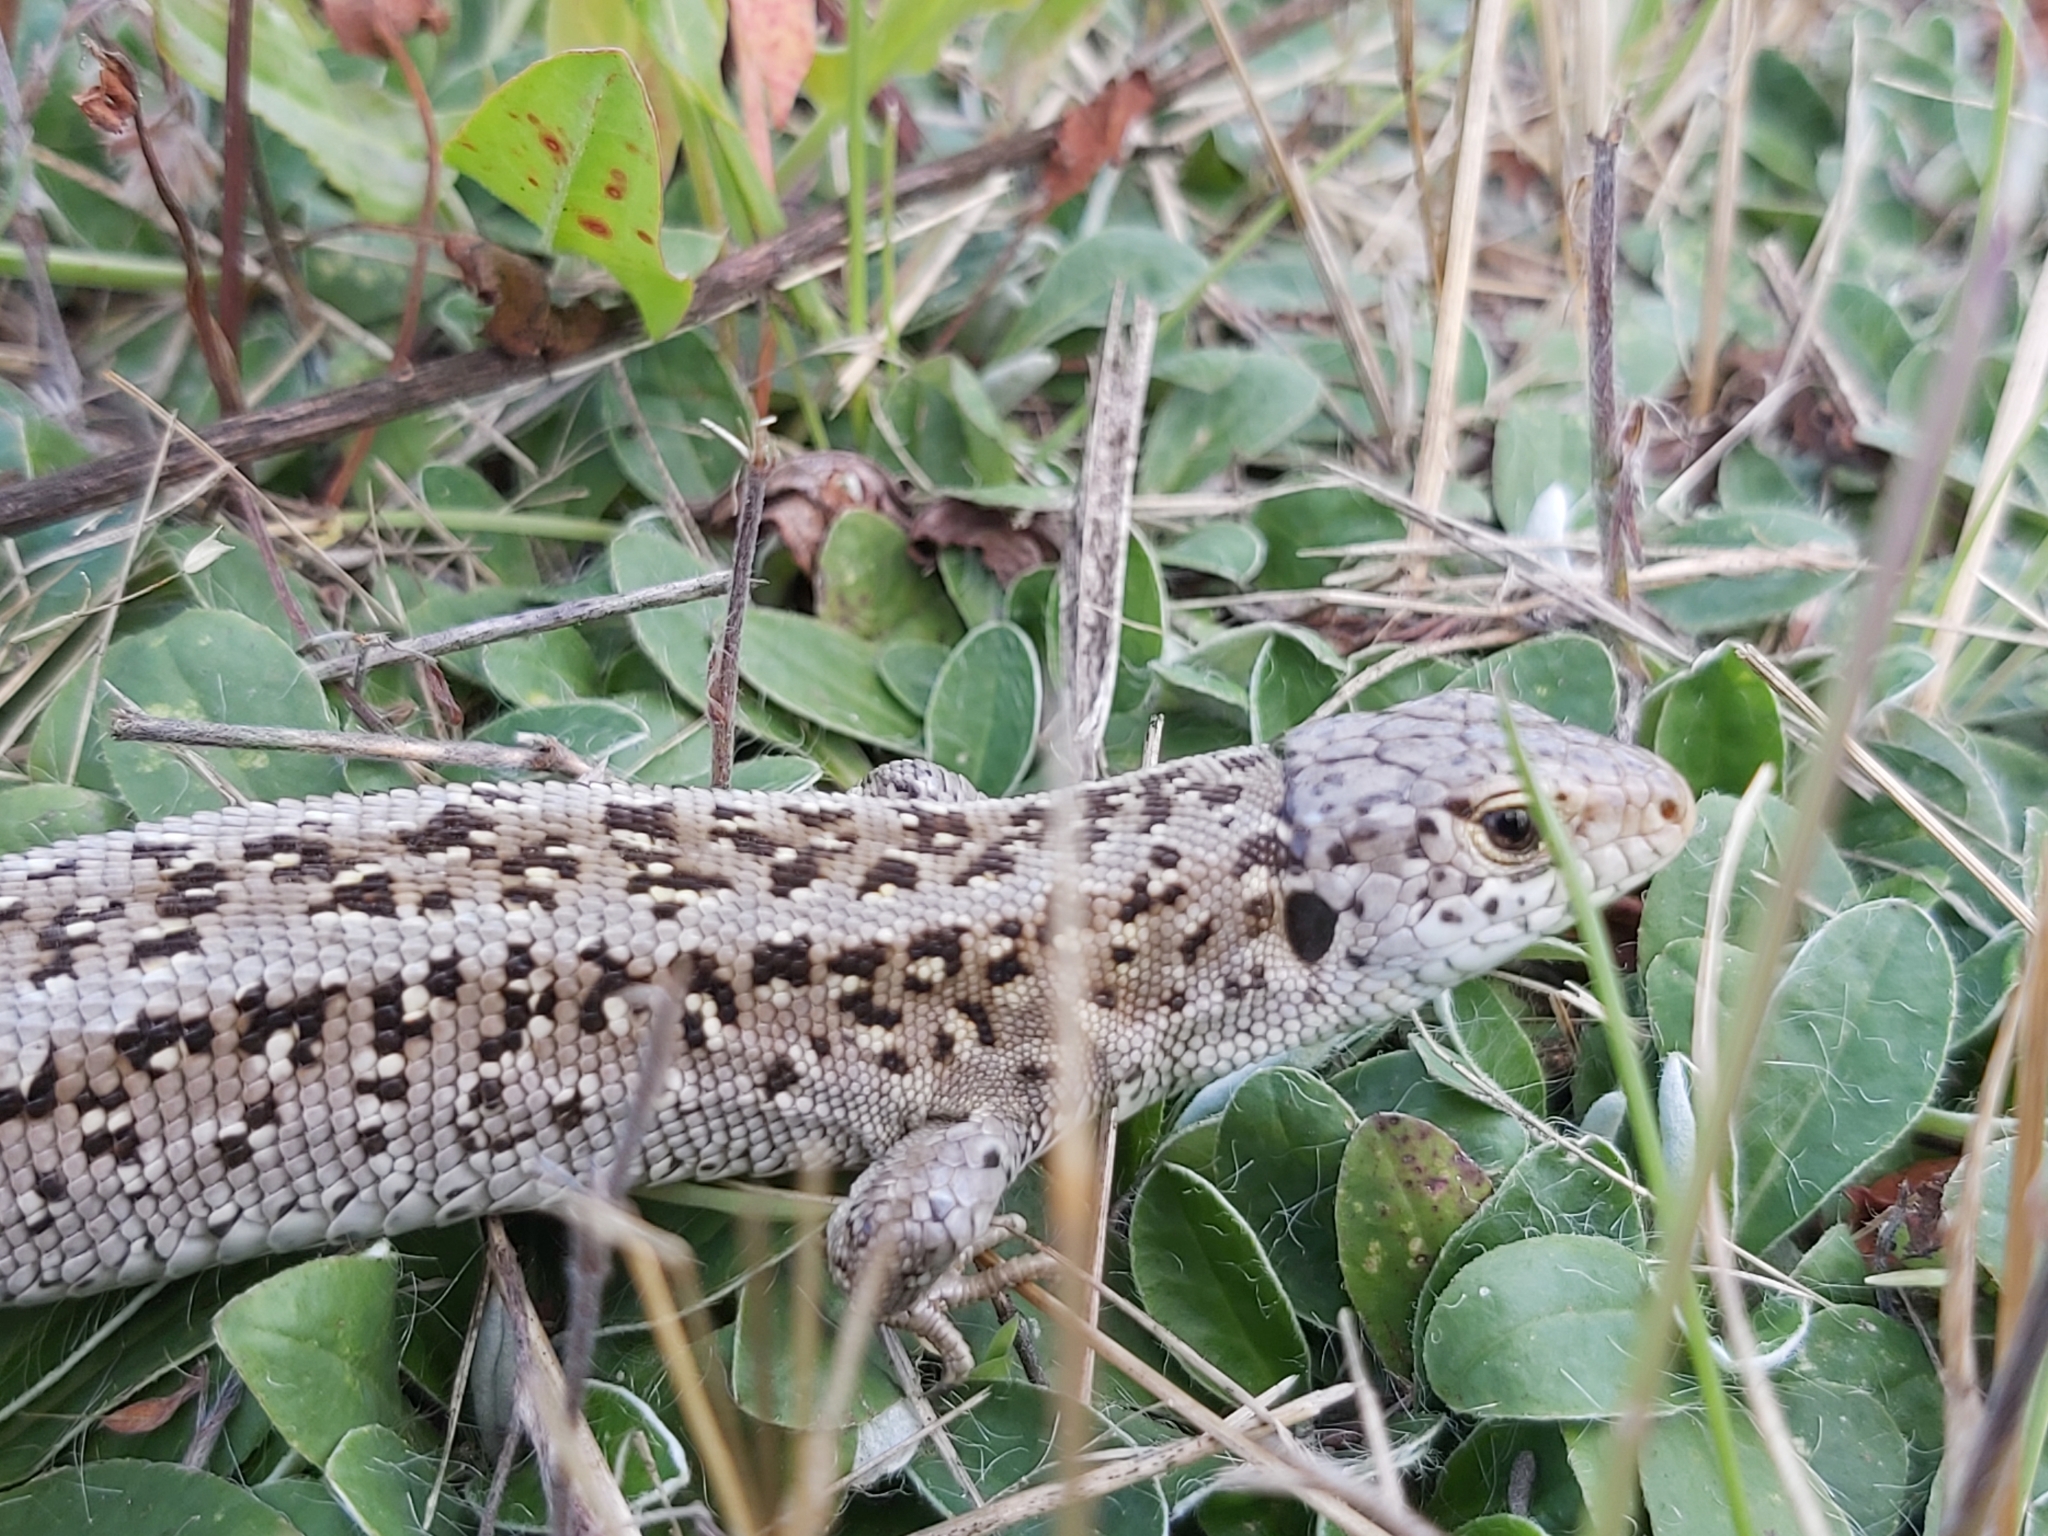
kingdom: Animalia
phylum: Chordata
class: Squamata
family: Lacertidae
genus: Lacerta
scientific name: Lacerta agilis
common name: Sand lizard
